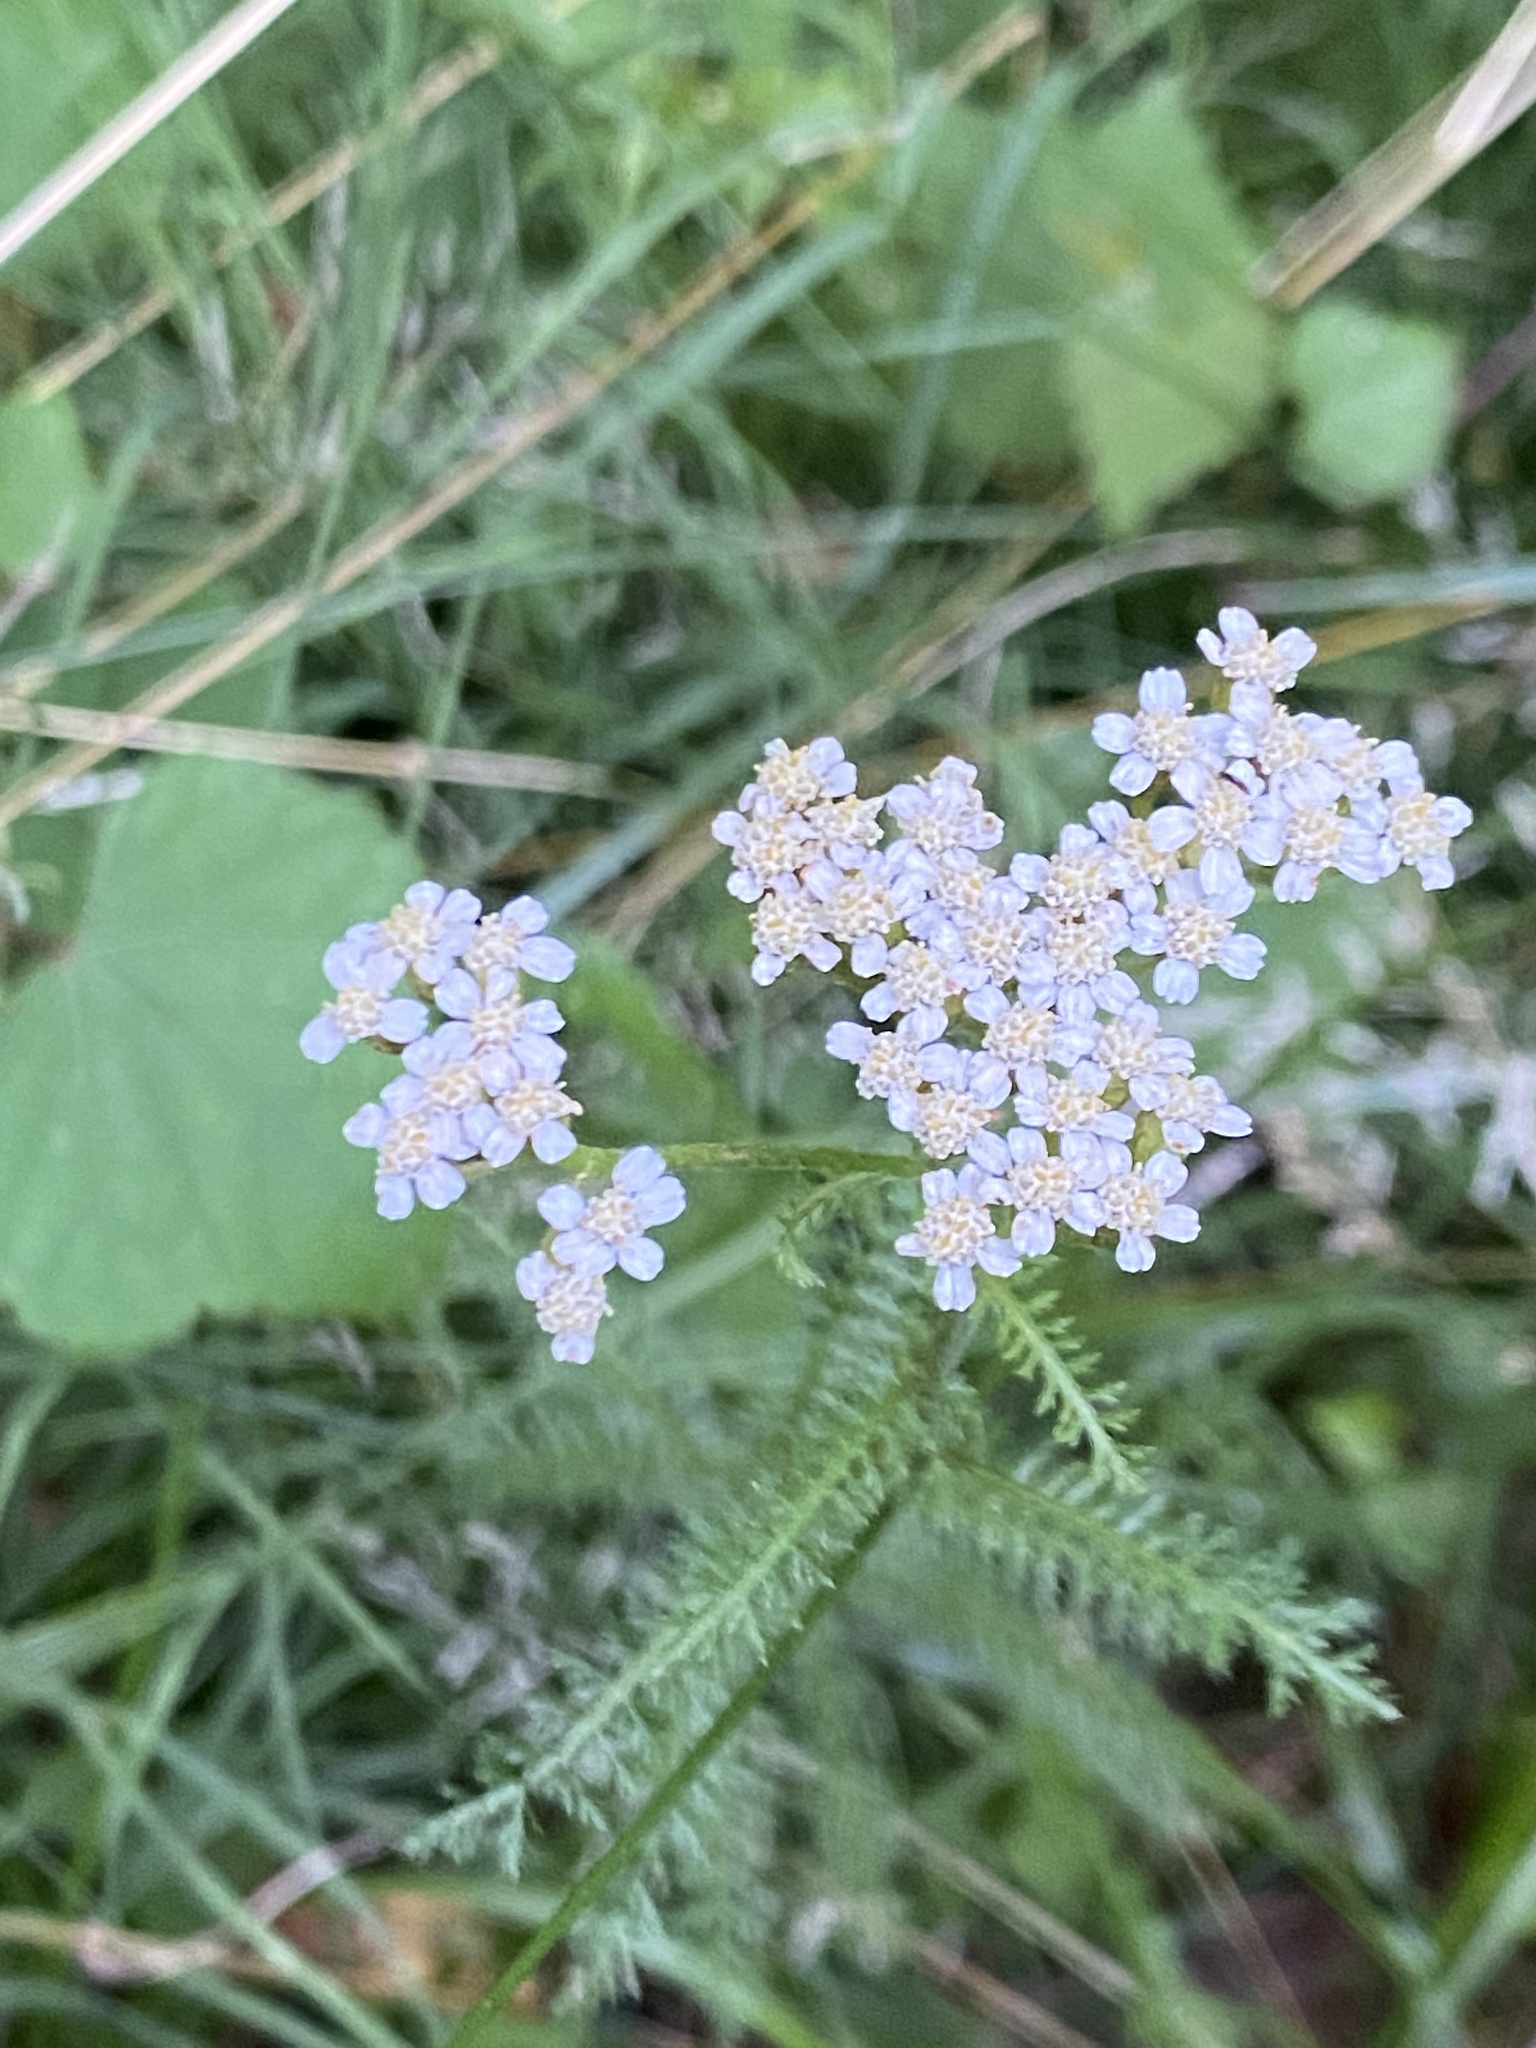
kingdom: Plantae
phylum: Tracheophyta
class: Magnoliopsida
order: Asterales
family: Asteraceae
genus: Achillea
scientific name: Achillea millefolium
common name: Yarrow
